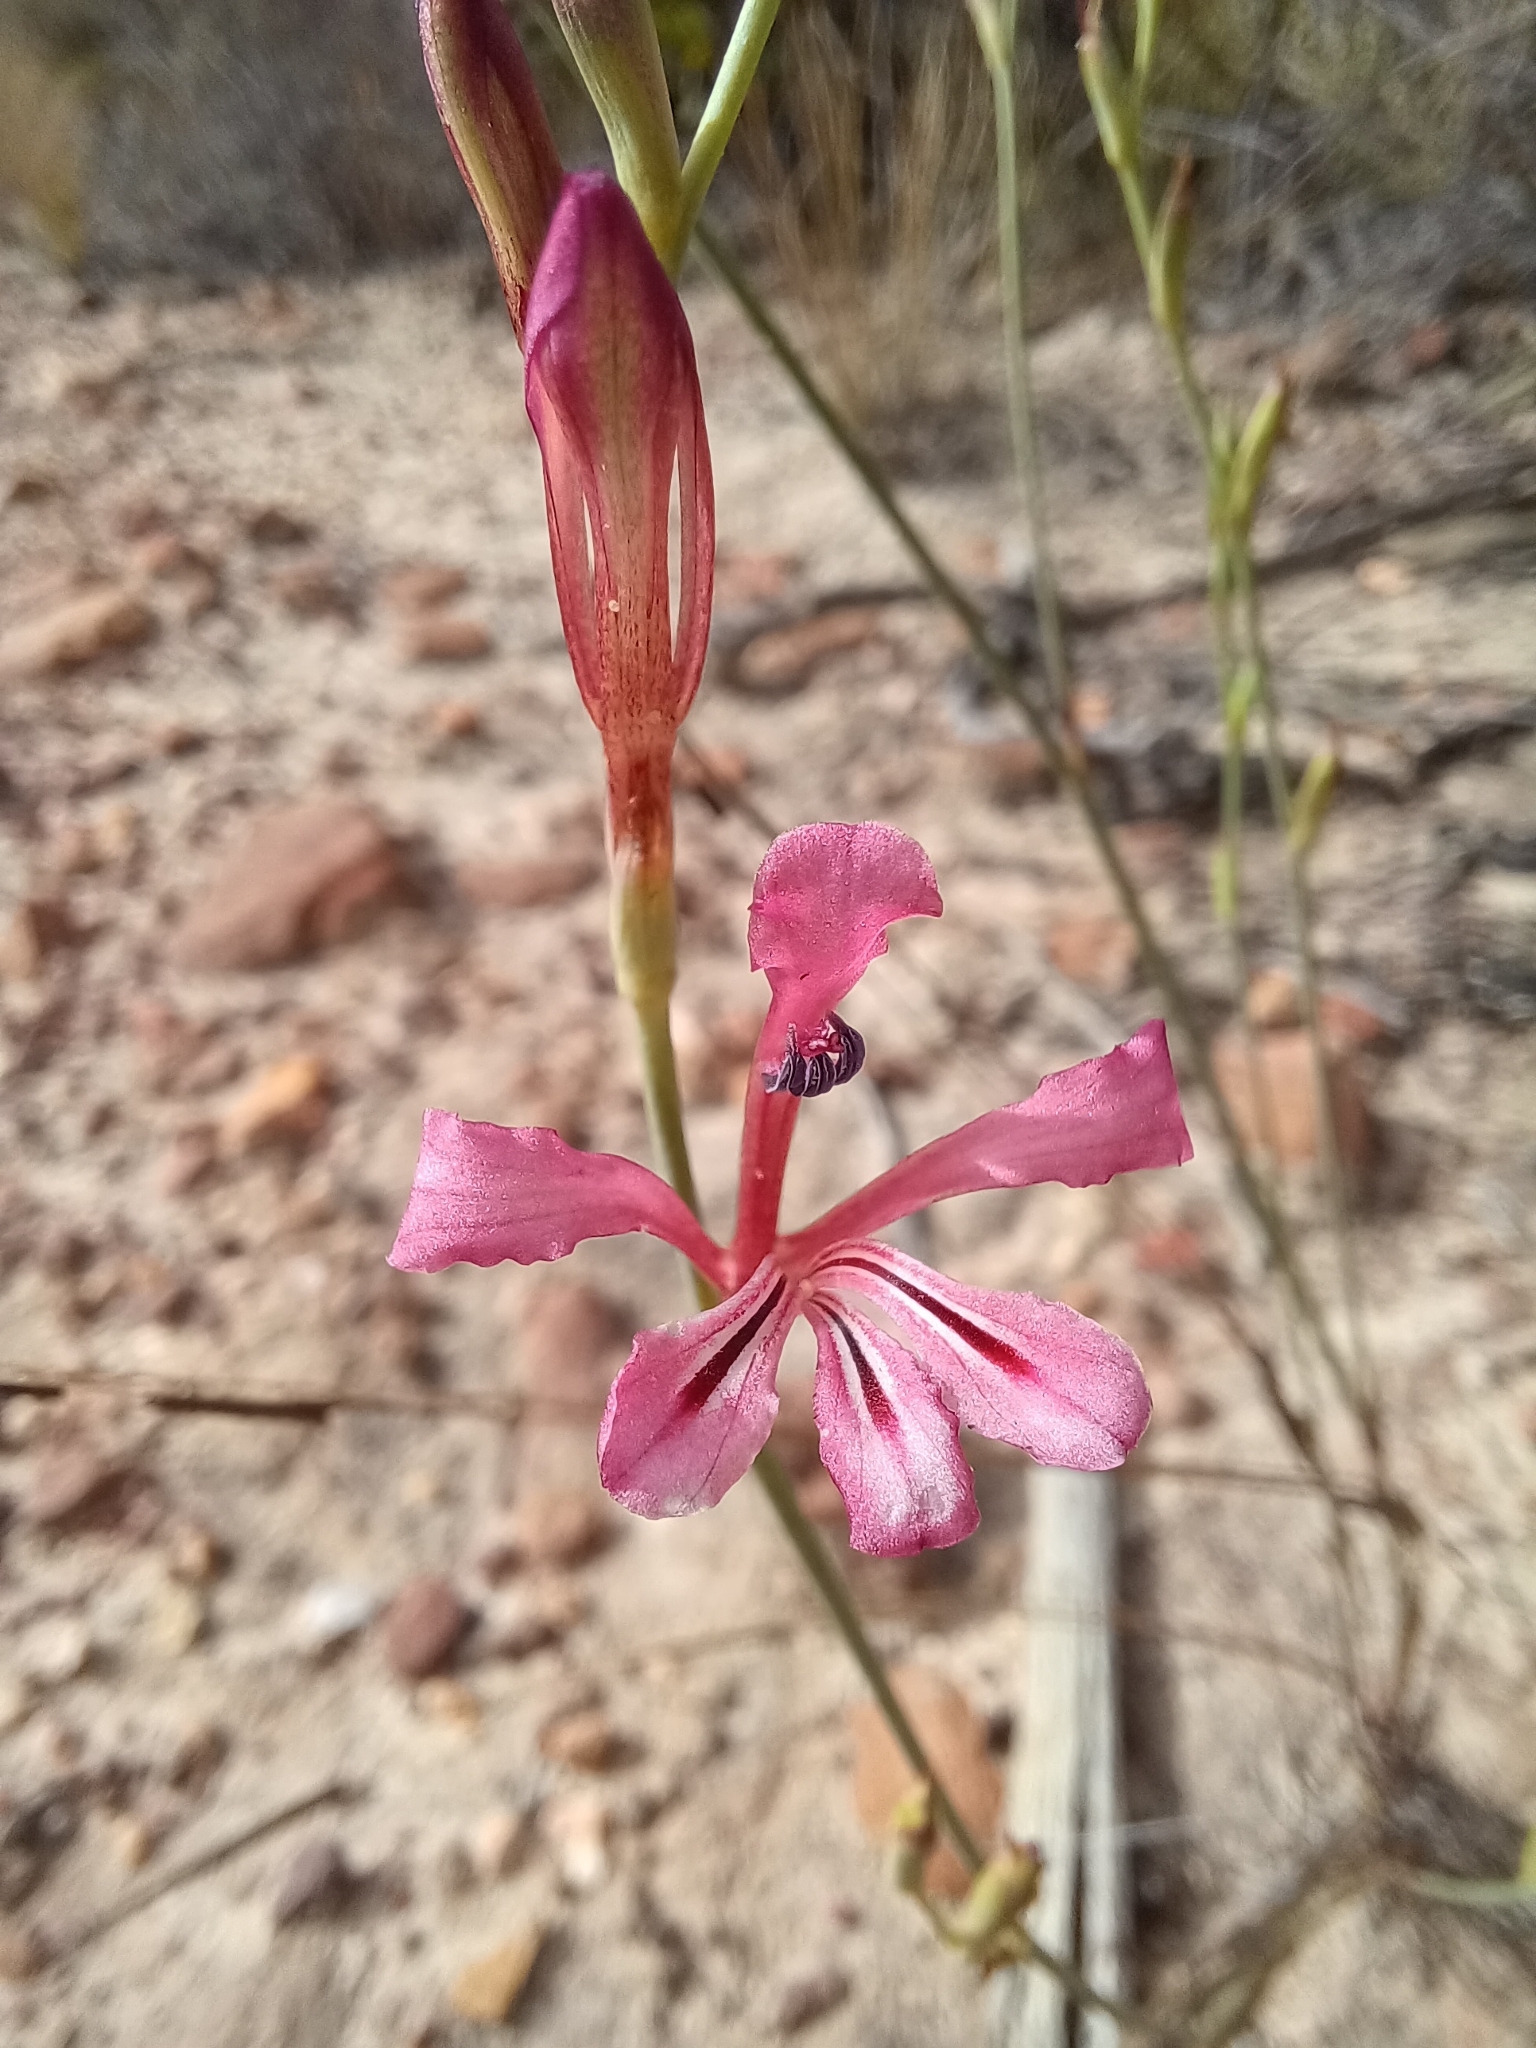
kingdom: Plantae
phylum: Tracheophyta
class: Liliopsida
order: Asparagales
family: Iridaceae
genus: Tritoniopsis
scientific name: Tritoniopsis ramosa
